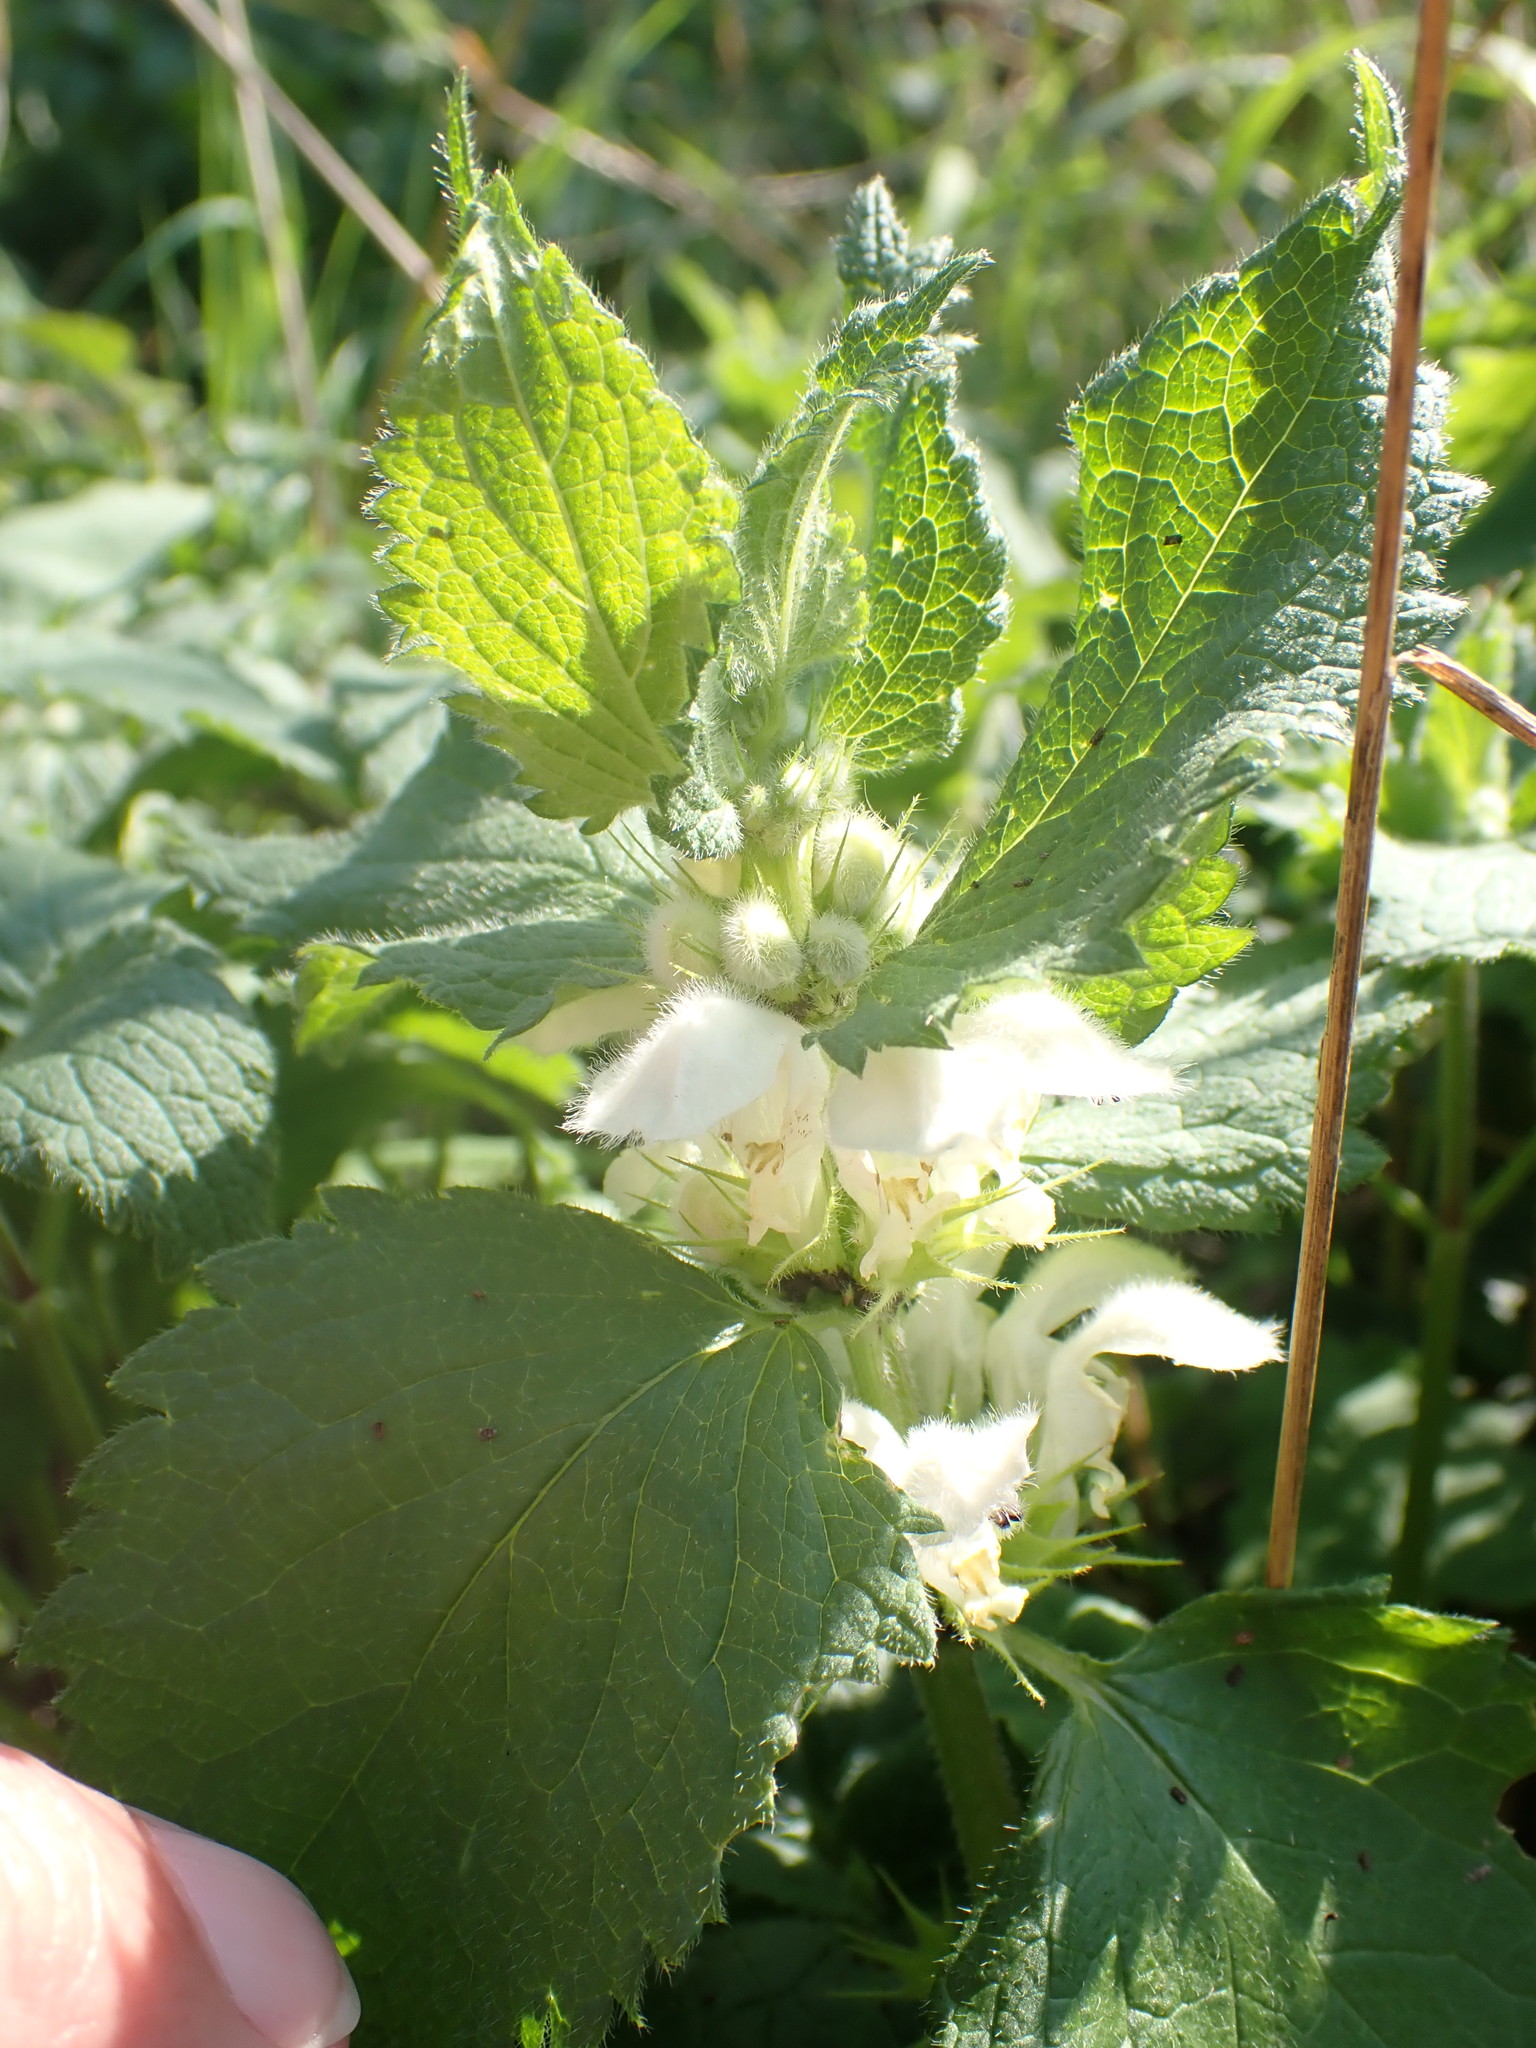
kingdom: Plantae
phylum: Tracheophyta
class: Magnoliopsida
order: Lamiales
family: Lamiaceae
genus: Lamium
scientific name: Lamium album
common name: White dead-nettle
